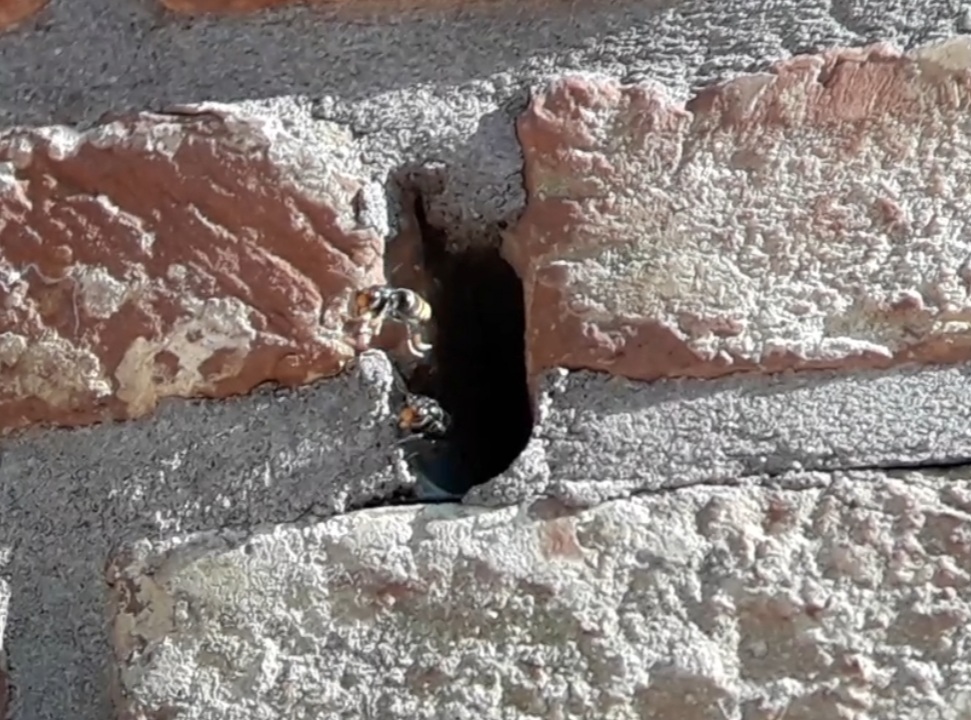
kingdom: Animalia
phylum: Arthropoda
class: Insecta
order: Hymenoptera
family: Vespidae
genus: Vespa
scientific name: Vespa velutina
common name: Asian hornet
